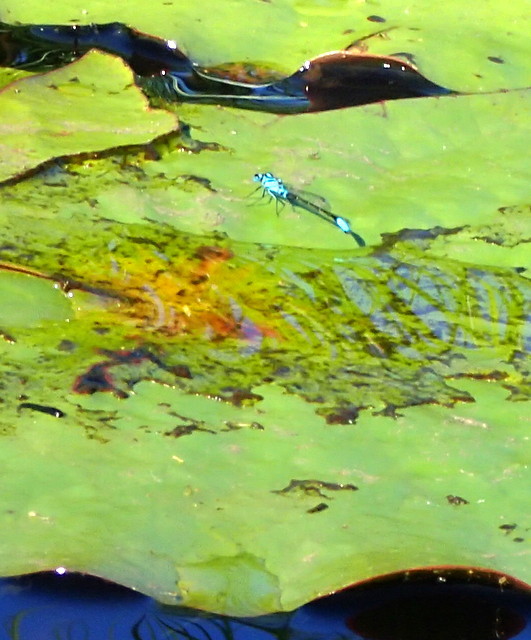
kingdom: Animalia
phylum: Arthropoda
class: Insecta
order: Odonata
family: Coenagrionidae
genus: Ischnura
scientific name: Ischnura kellicotti
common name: Lilypad forktail
